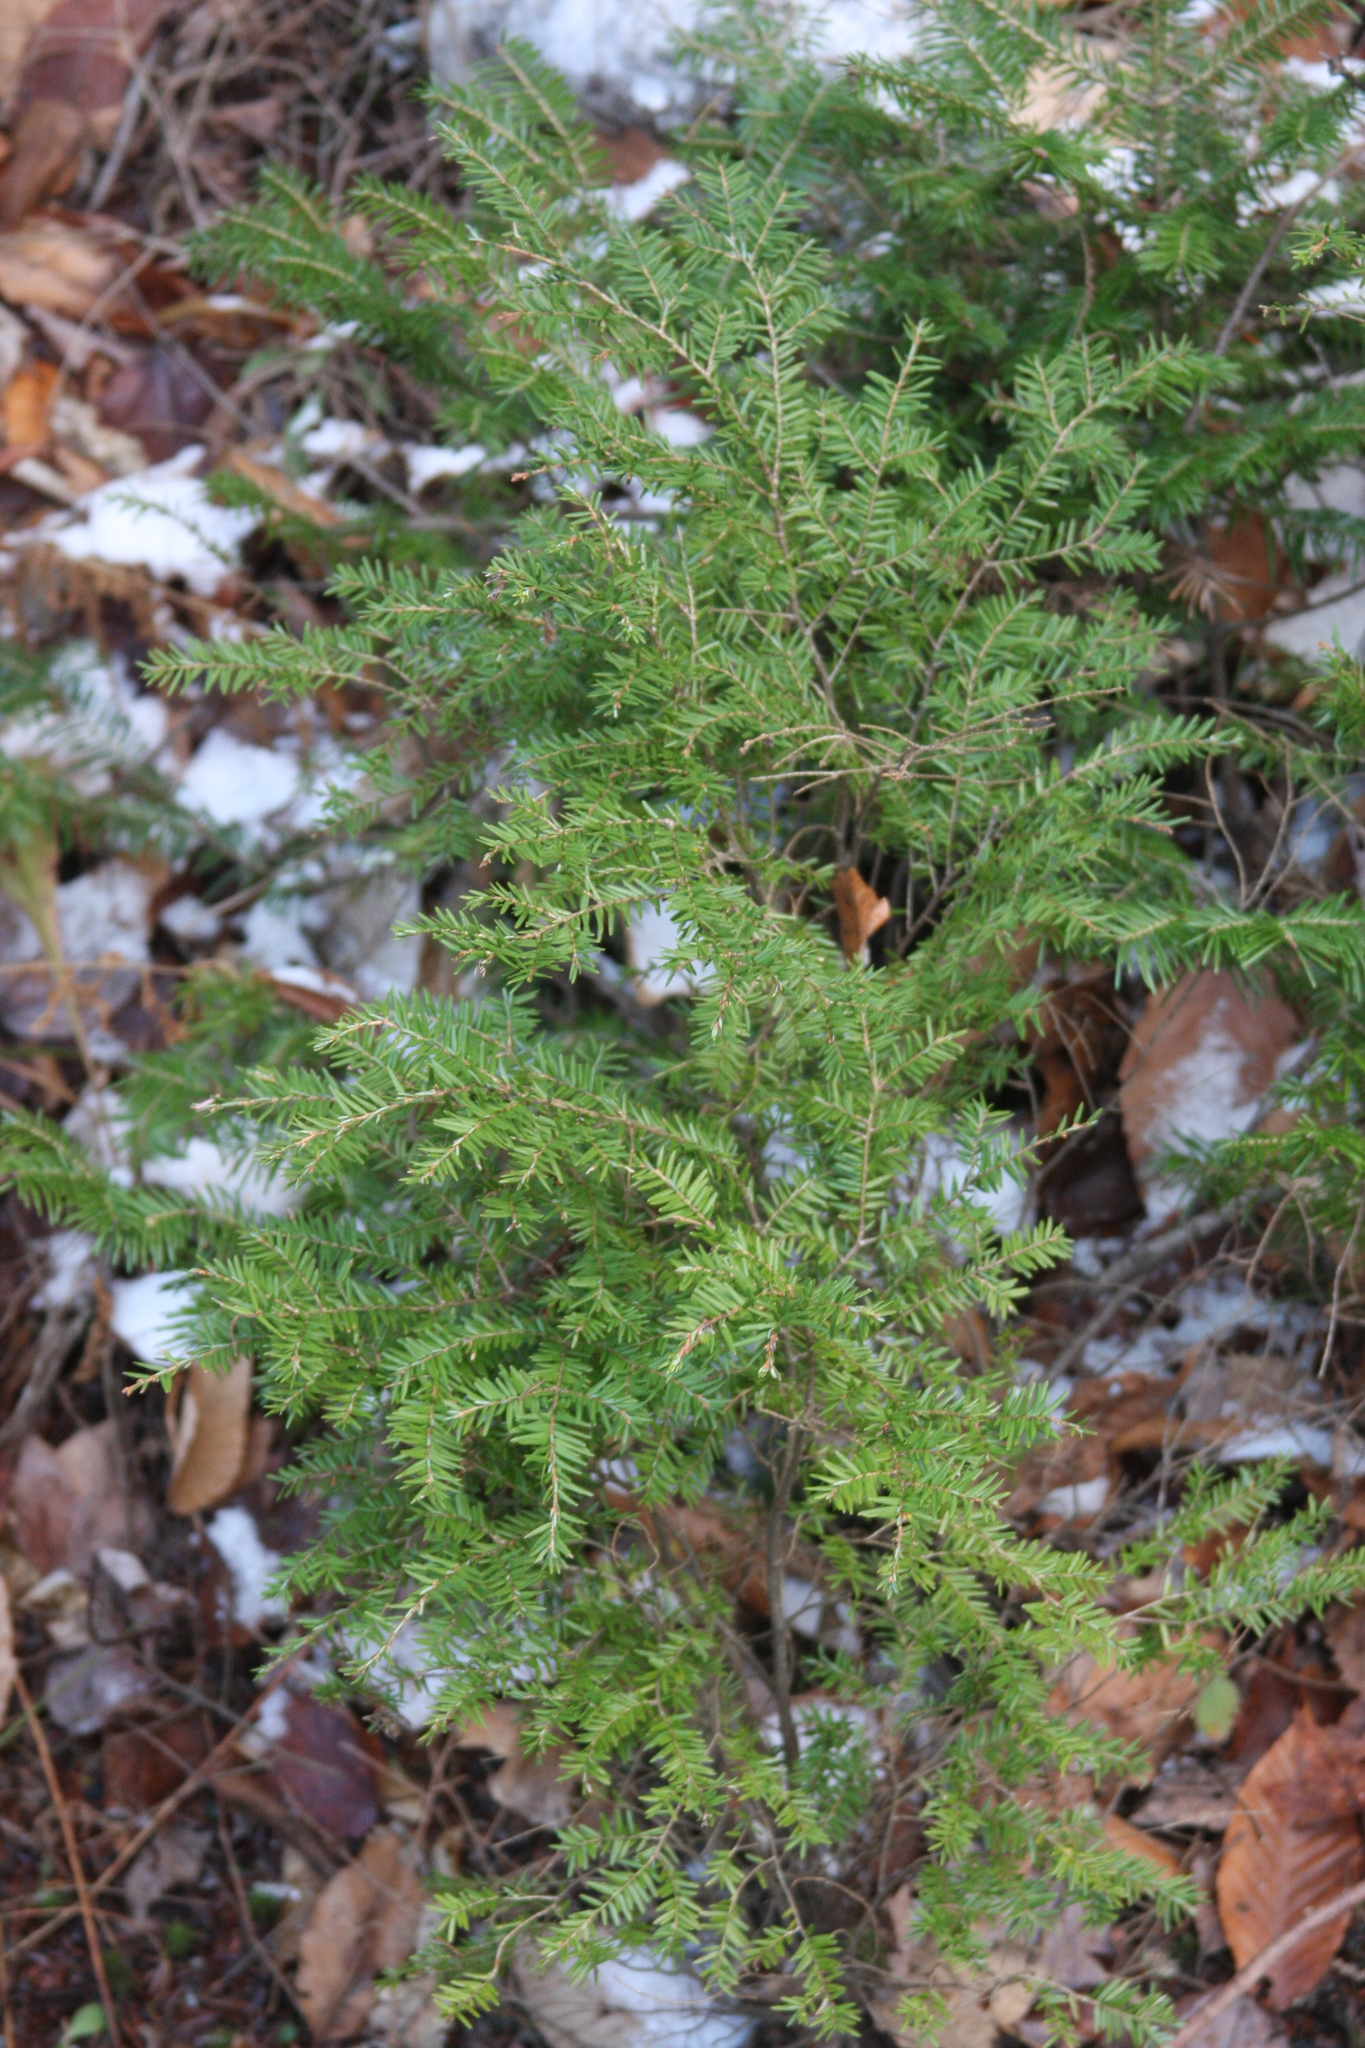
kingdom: Plantae
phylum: Tracheophyta
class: Pinopsida
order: Pinales
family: Pinaceae
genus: Tsuga
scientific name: Tsuga canadensis
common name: Eastern hemlock
